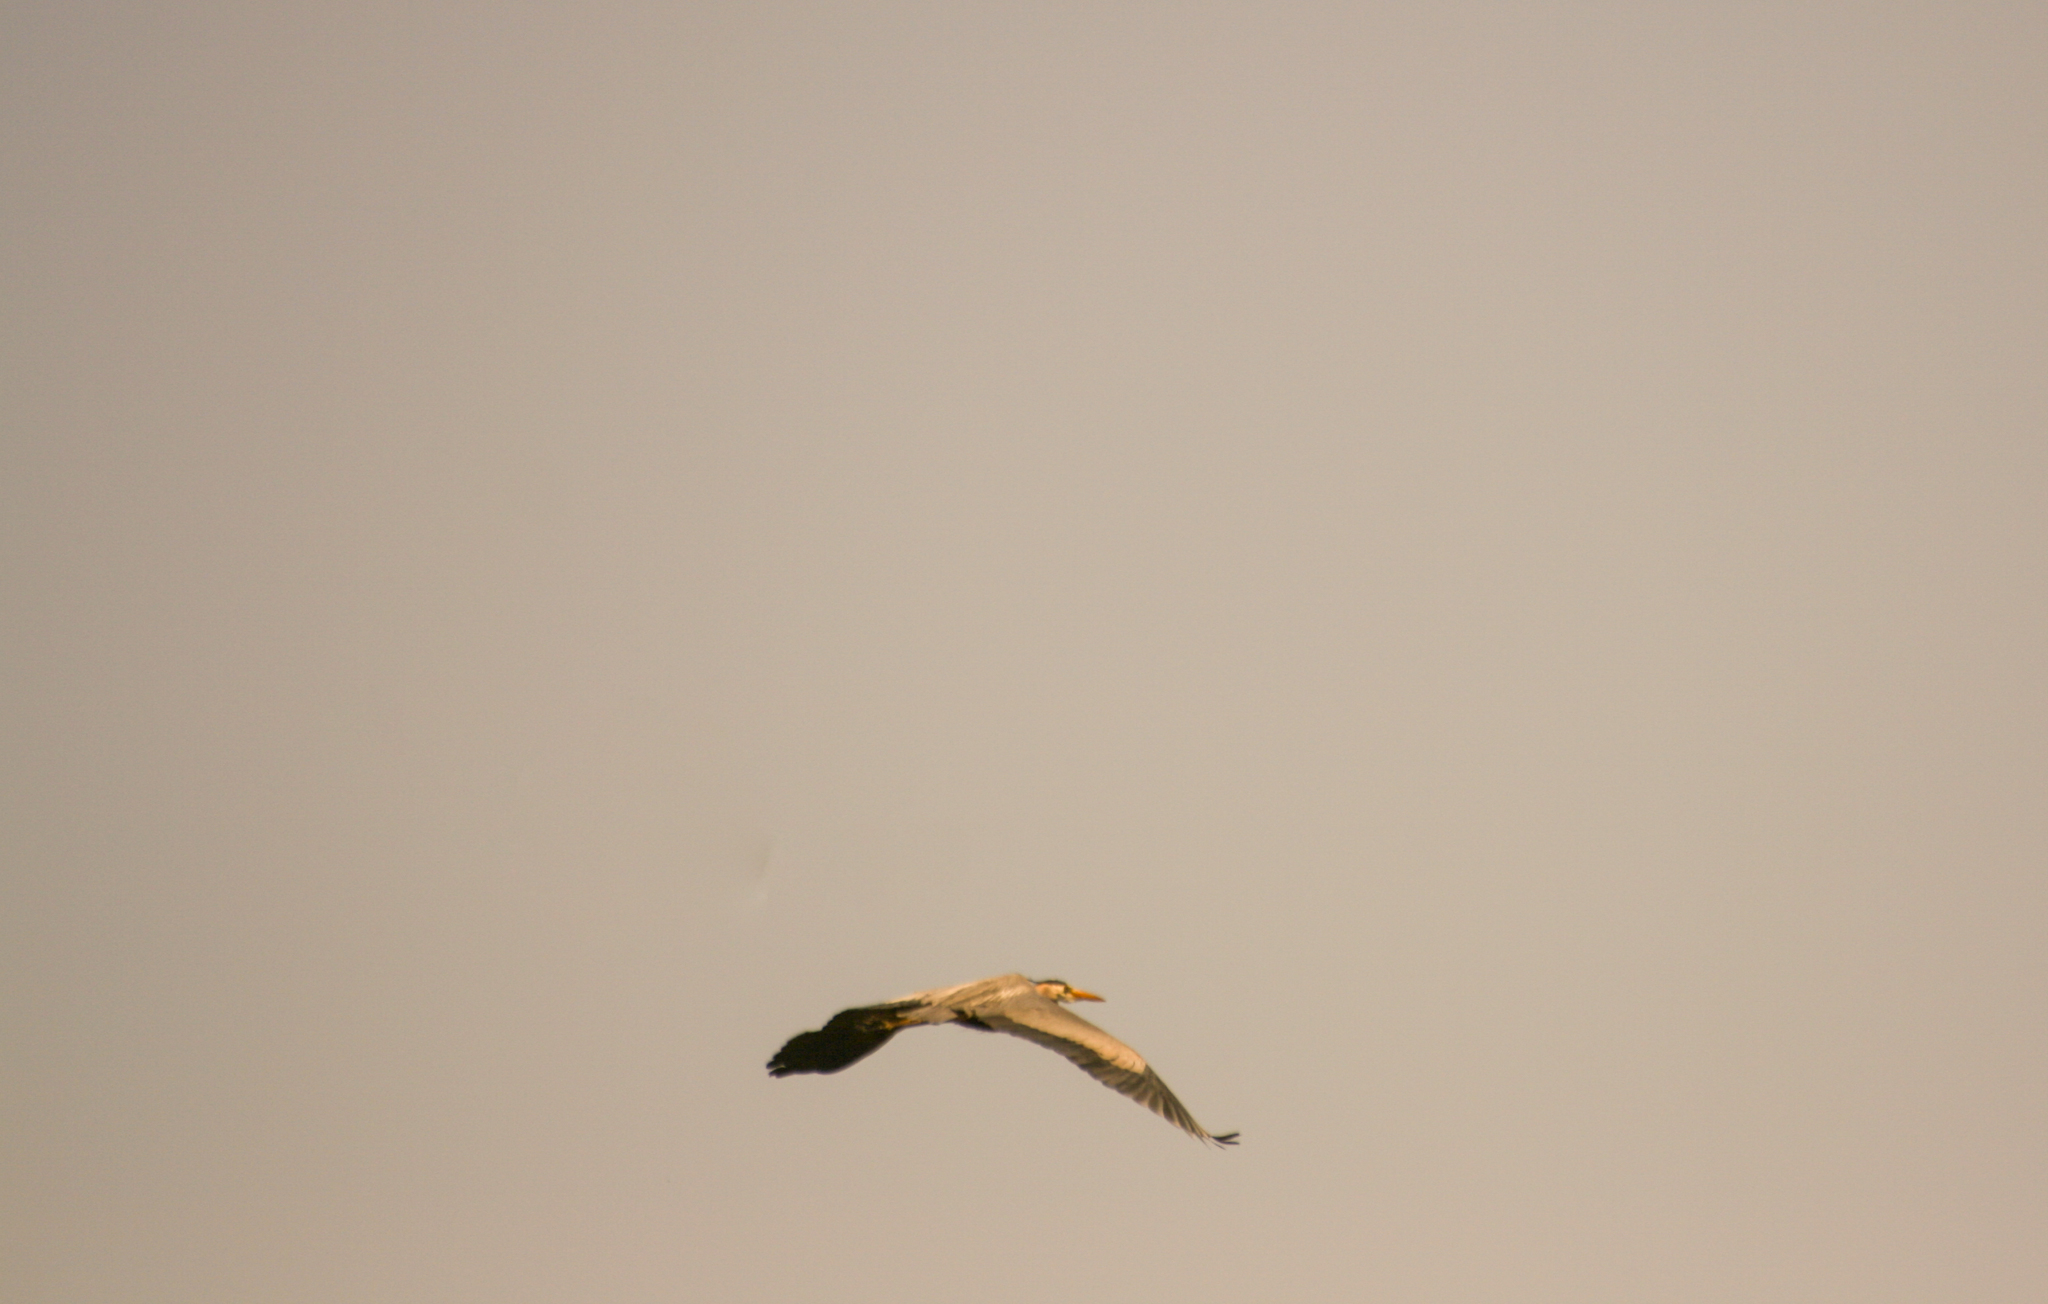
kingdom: Animalia
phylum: Chordata
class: Aves
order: Pelecaniformes
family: Ardeidae
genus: Ardea
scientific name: Ardea herodias
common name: Great blue heron
